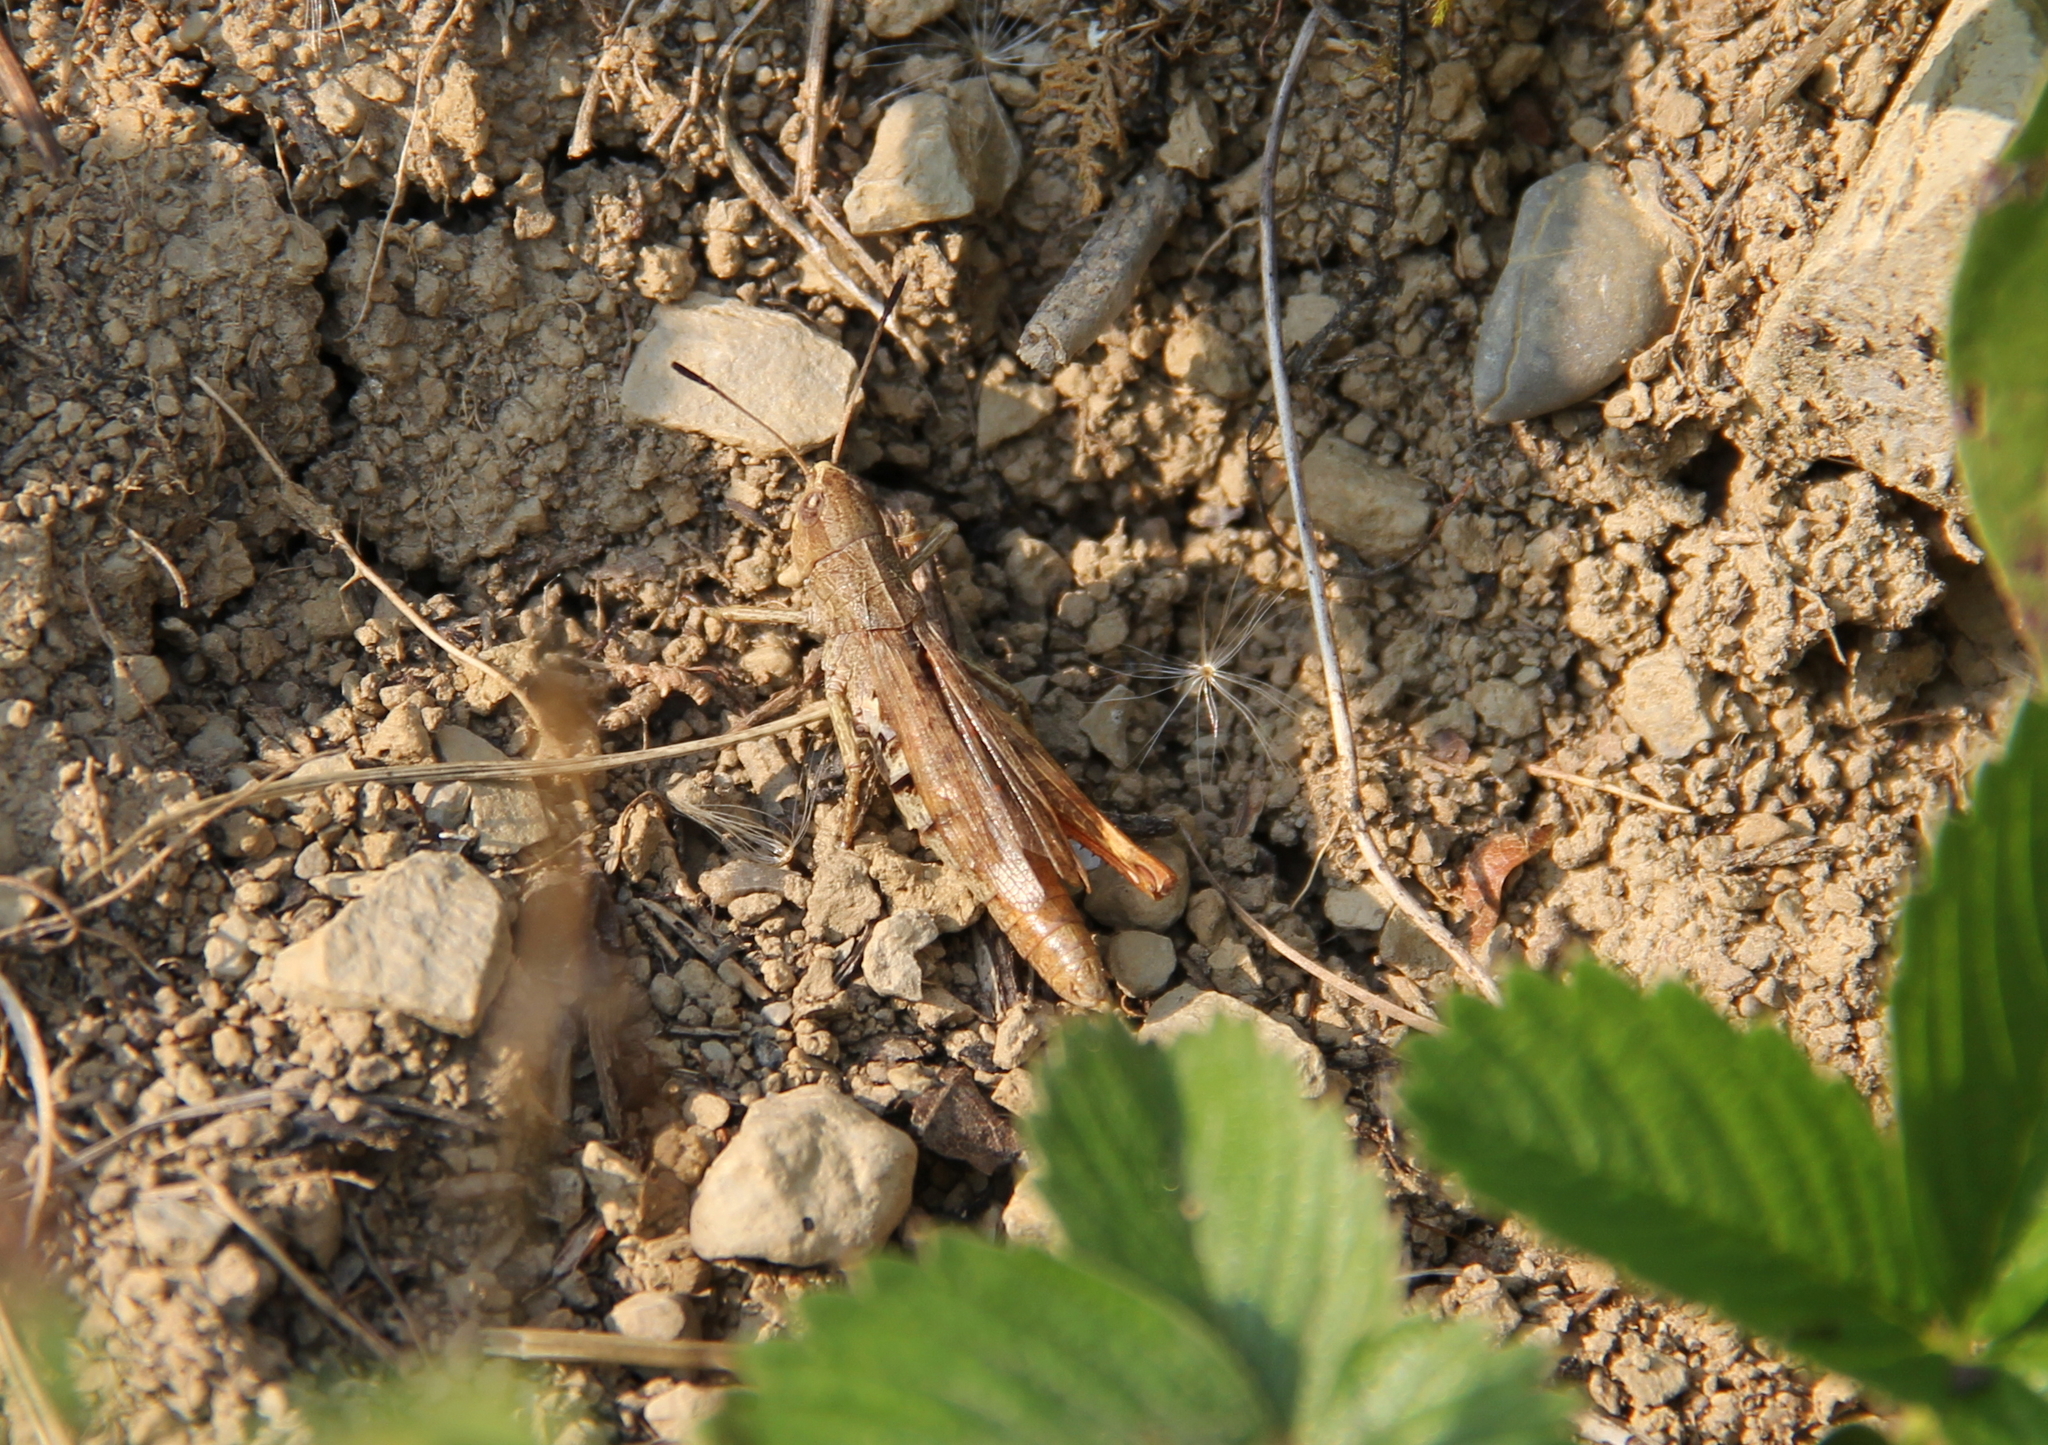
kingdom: Animalia
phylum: Arthropoda
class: Insecta
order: Orthoptera
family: Acrididae
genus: Gomphocerippus
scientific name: Gomphocerippus rufus
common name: Rufous grasshopper
